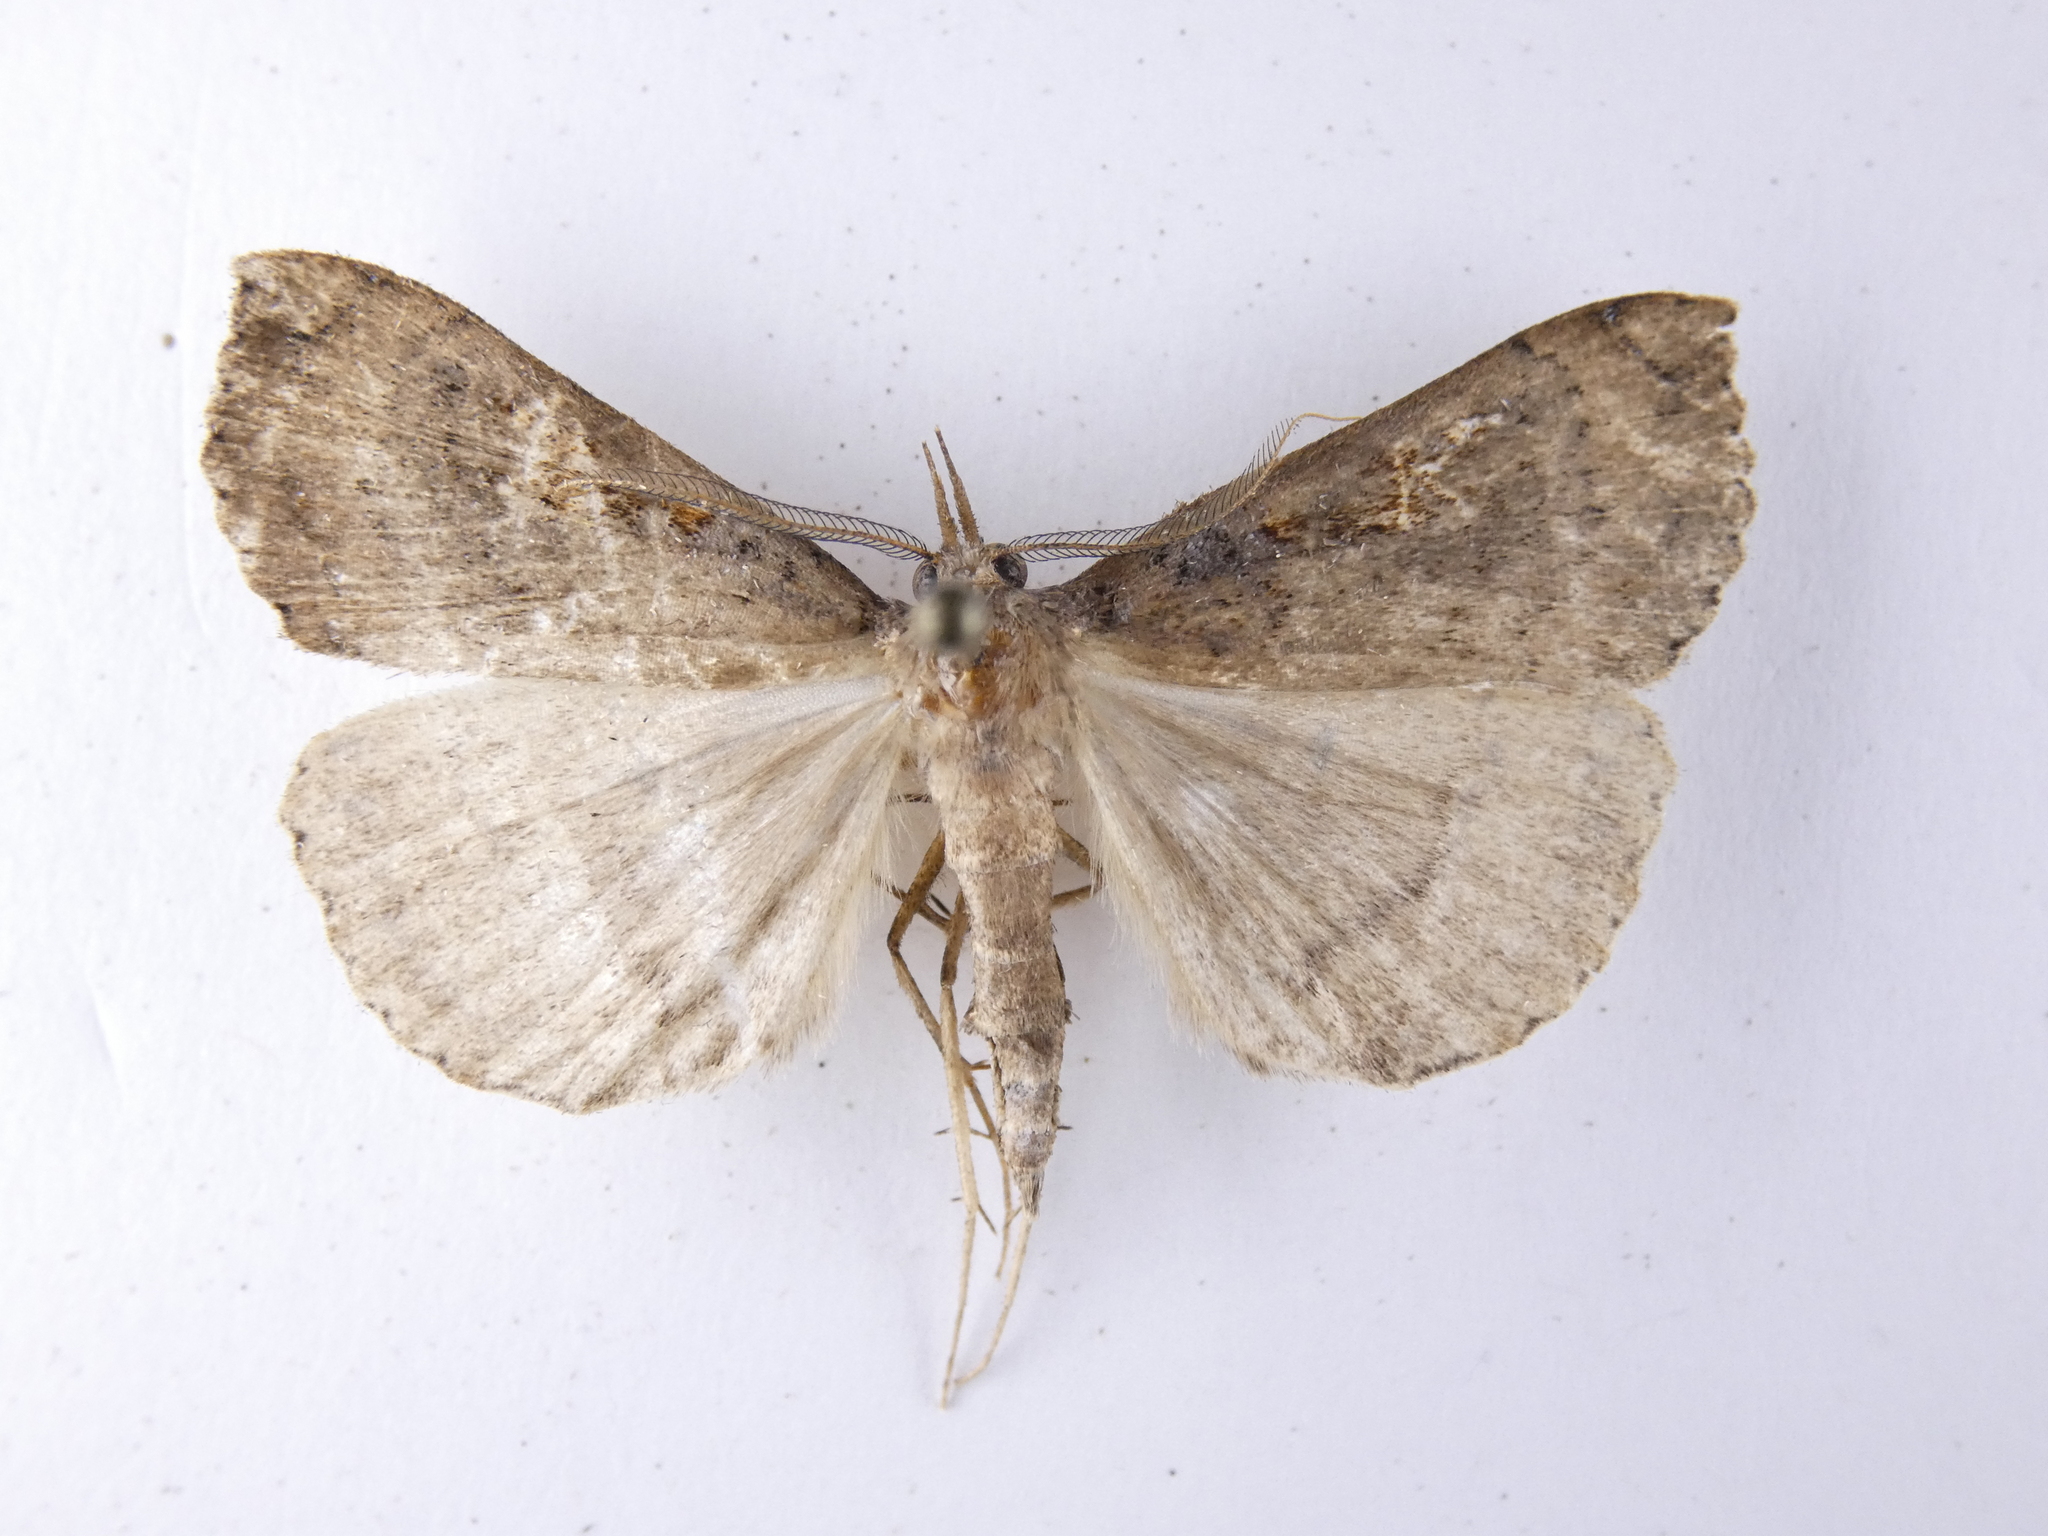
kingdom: Animalia
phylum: Arthropoda
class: Insecta
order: Lepidoptera
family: Erebidae
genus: Rhapsa
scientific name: Rhapsa scotosialis
